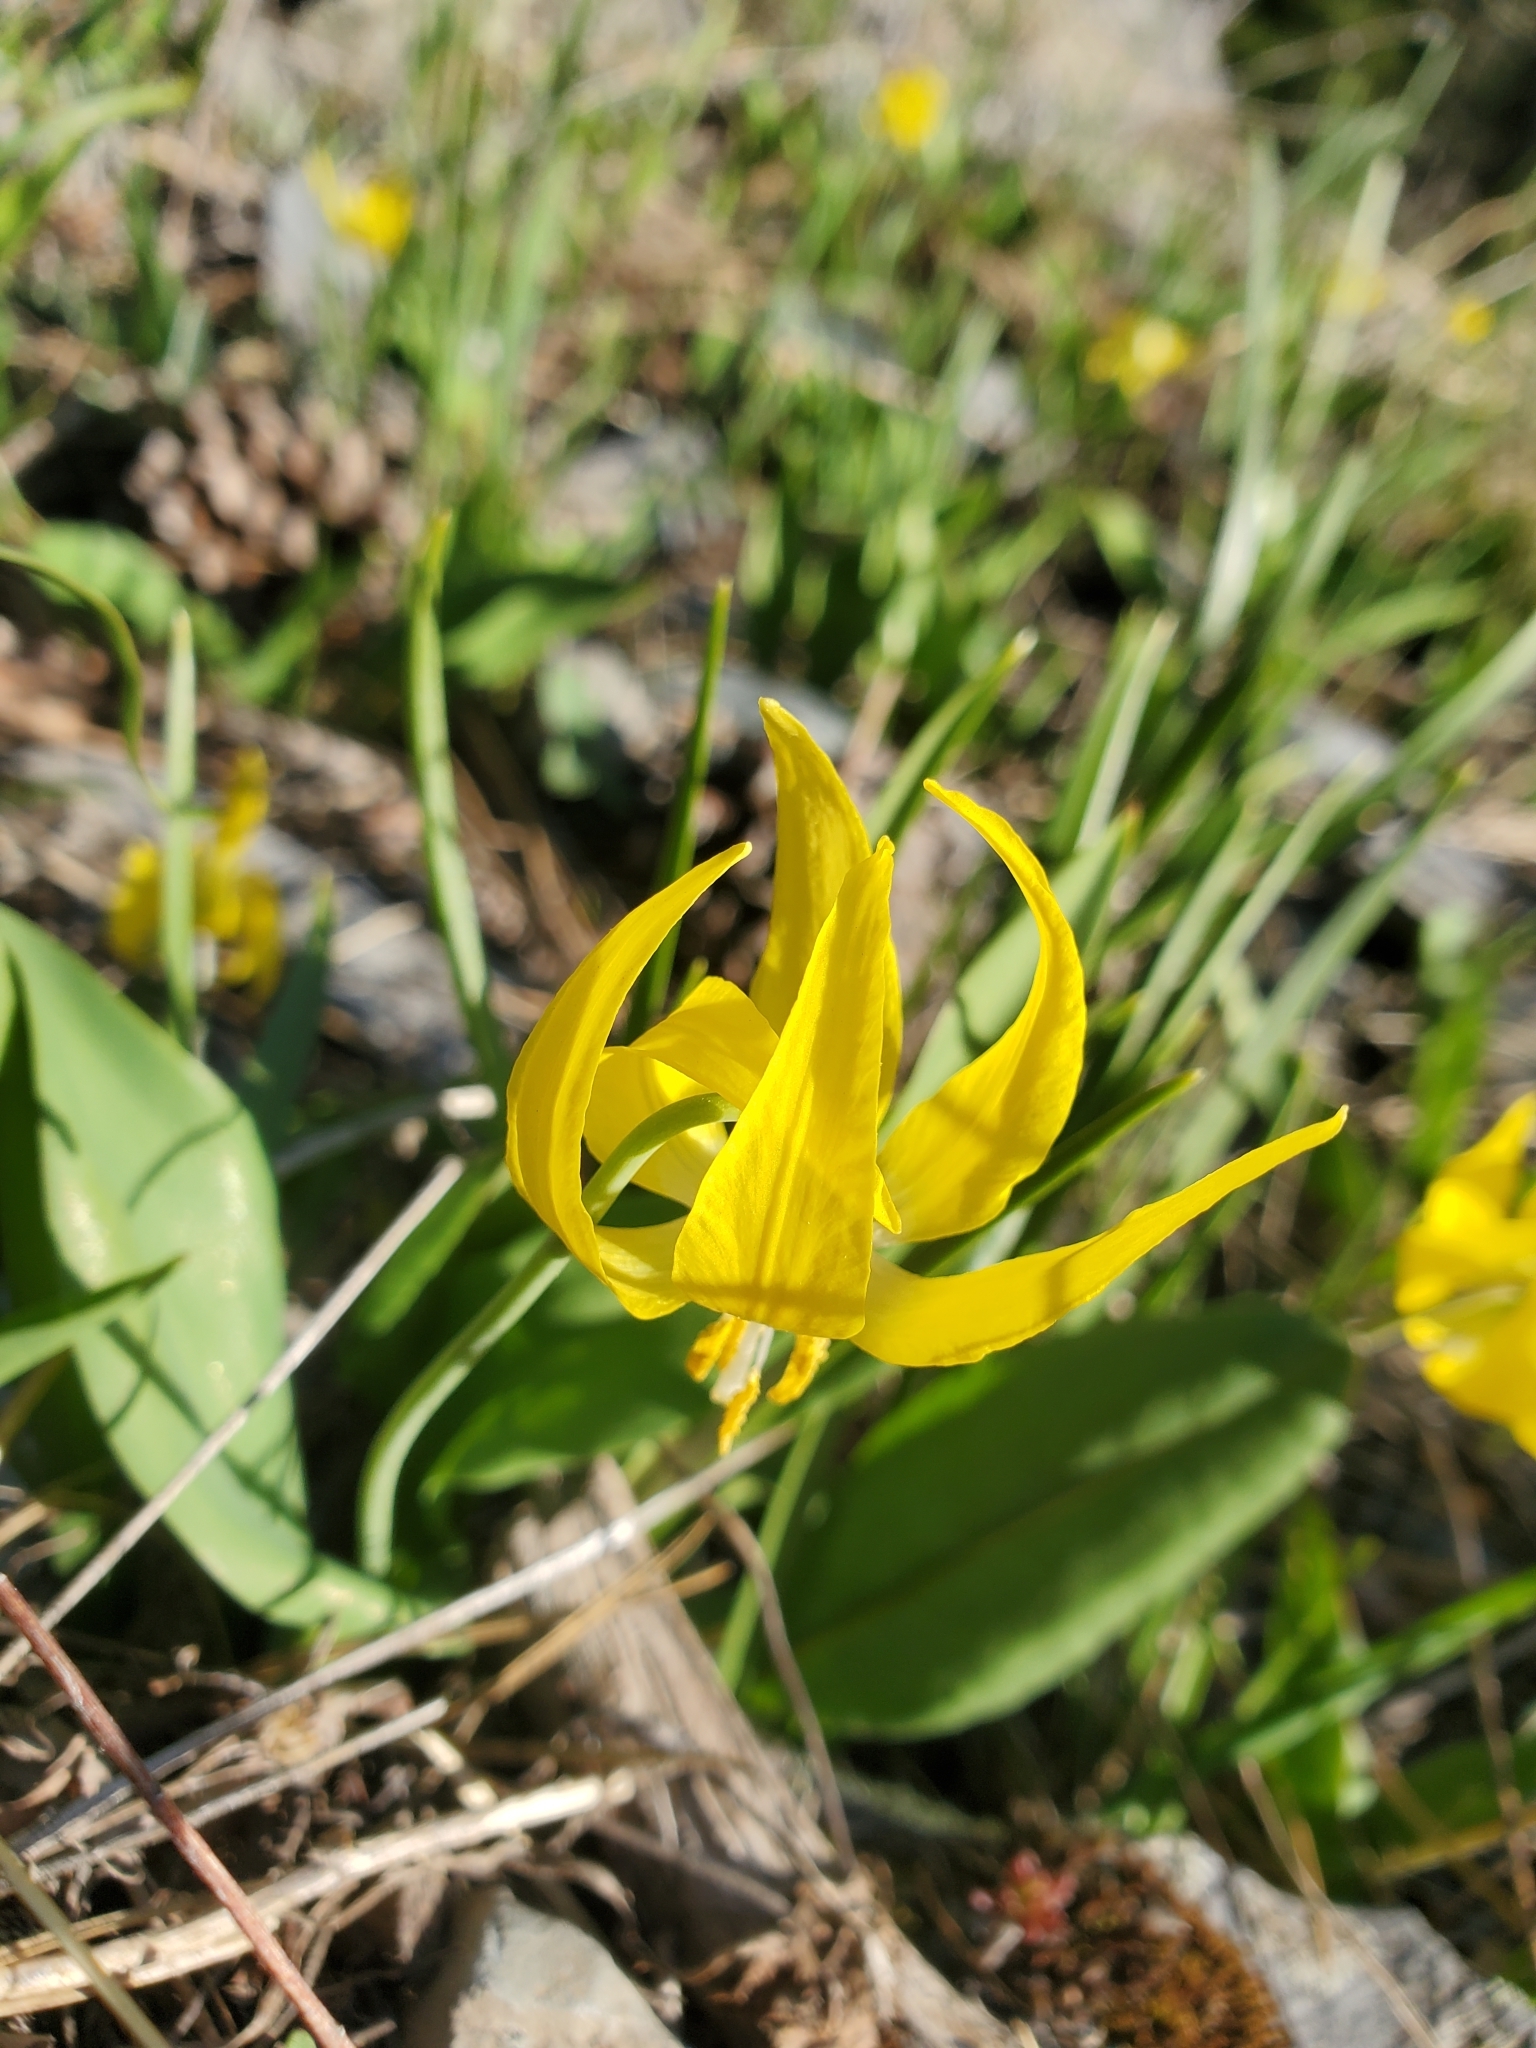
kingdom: Plantae
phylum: Tracheophyta
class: Liliopsida
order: Liliales
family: Liliaceae
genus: Erythronium
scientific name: Erythronium grandiflorum
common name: Avalanche-lily
